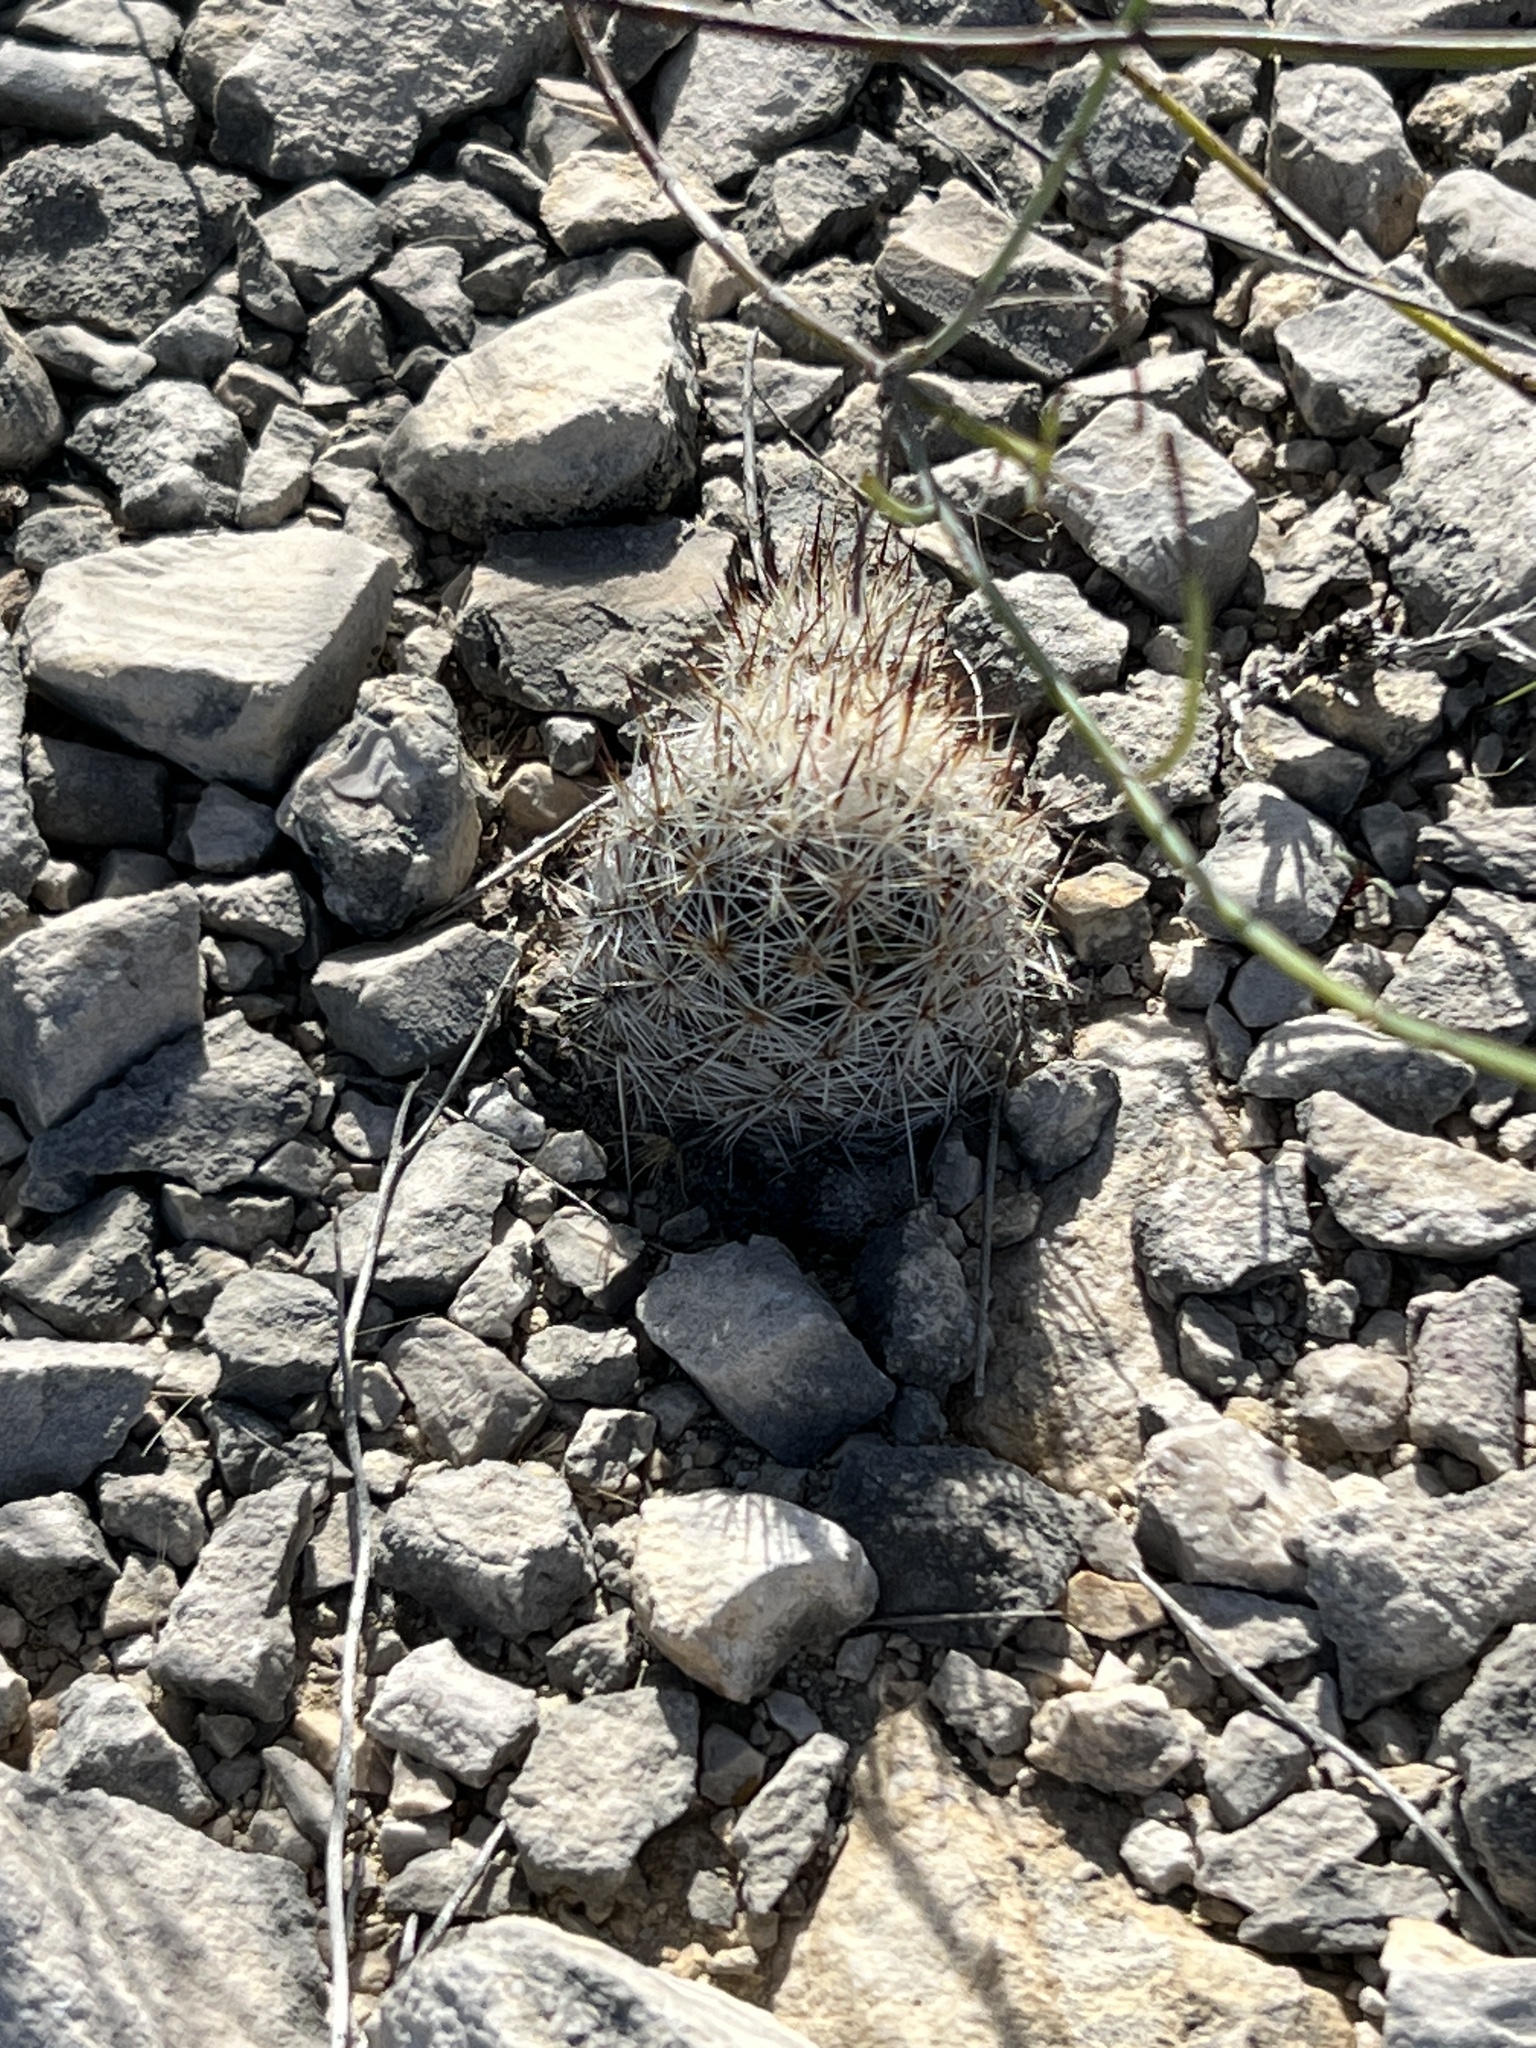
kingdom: Plantae
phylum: Tracheophyta
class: Magnoliopsida
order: Caryophyllales
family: Cactaceae
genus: Pelecyphora
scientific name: Pelecyphora emskoetteriana
